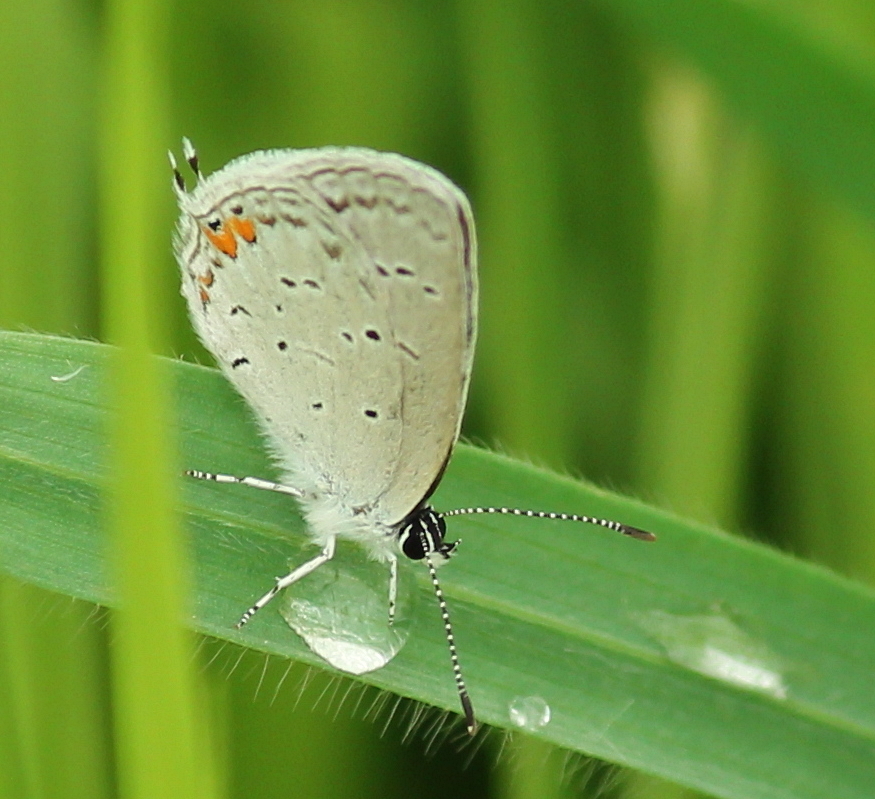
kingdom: Animalia
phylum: Arthropoda
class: Insecta
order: Lepidoptera
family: Lycaenidae
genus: Elkalyce
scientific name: Elkalyce comyntas
